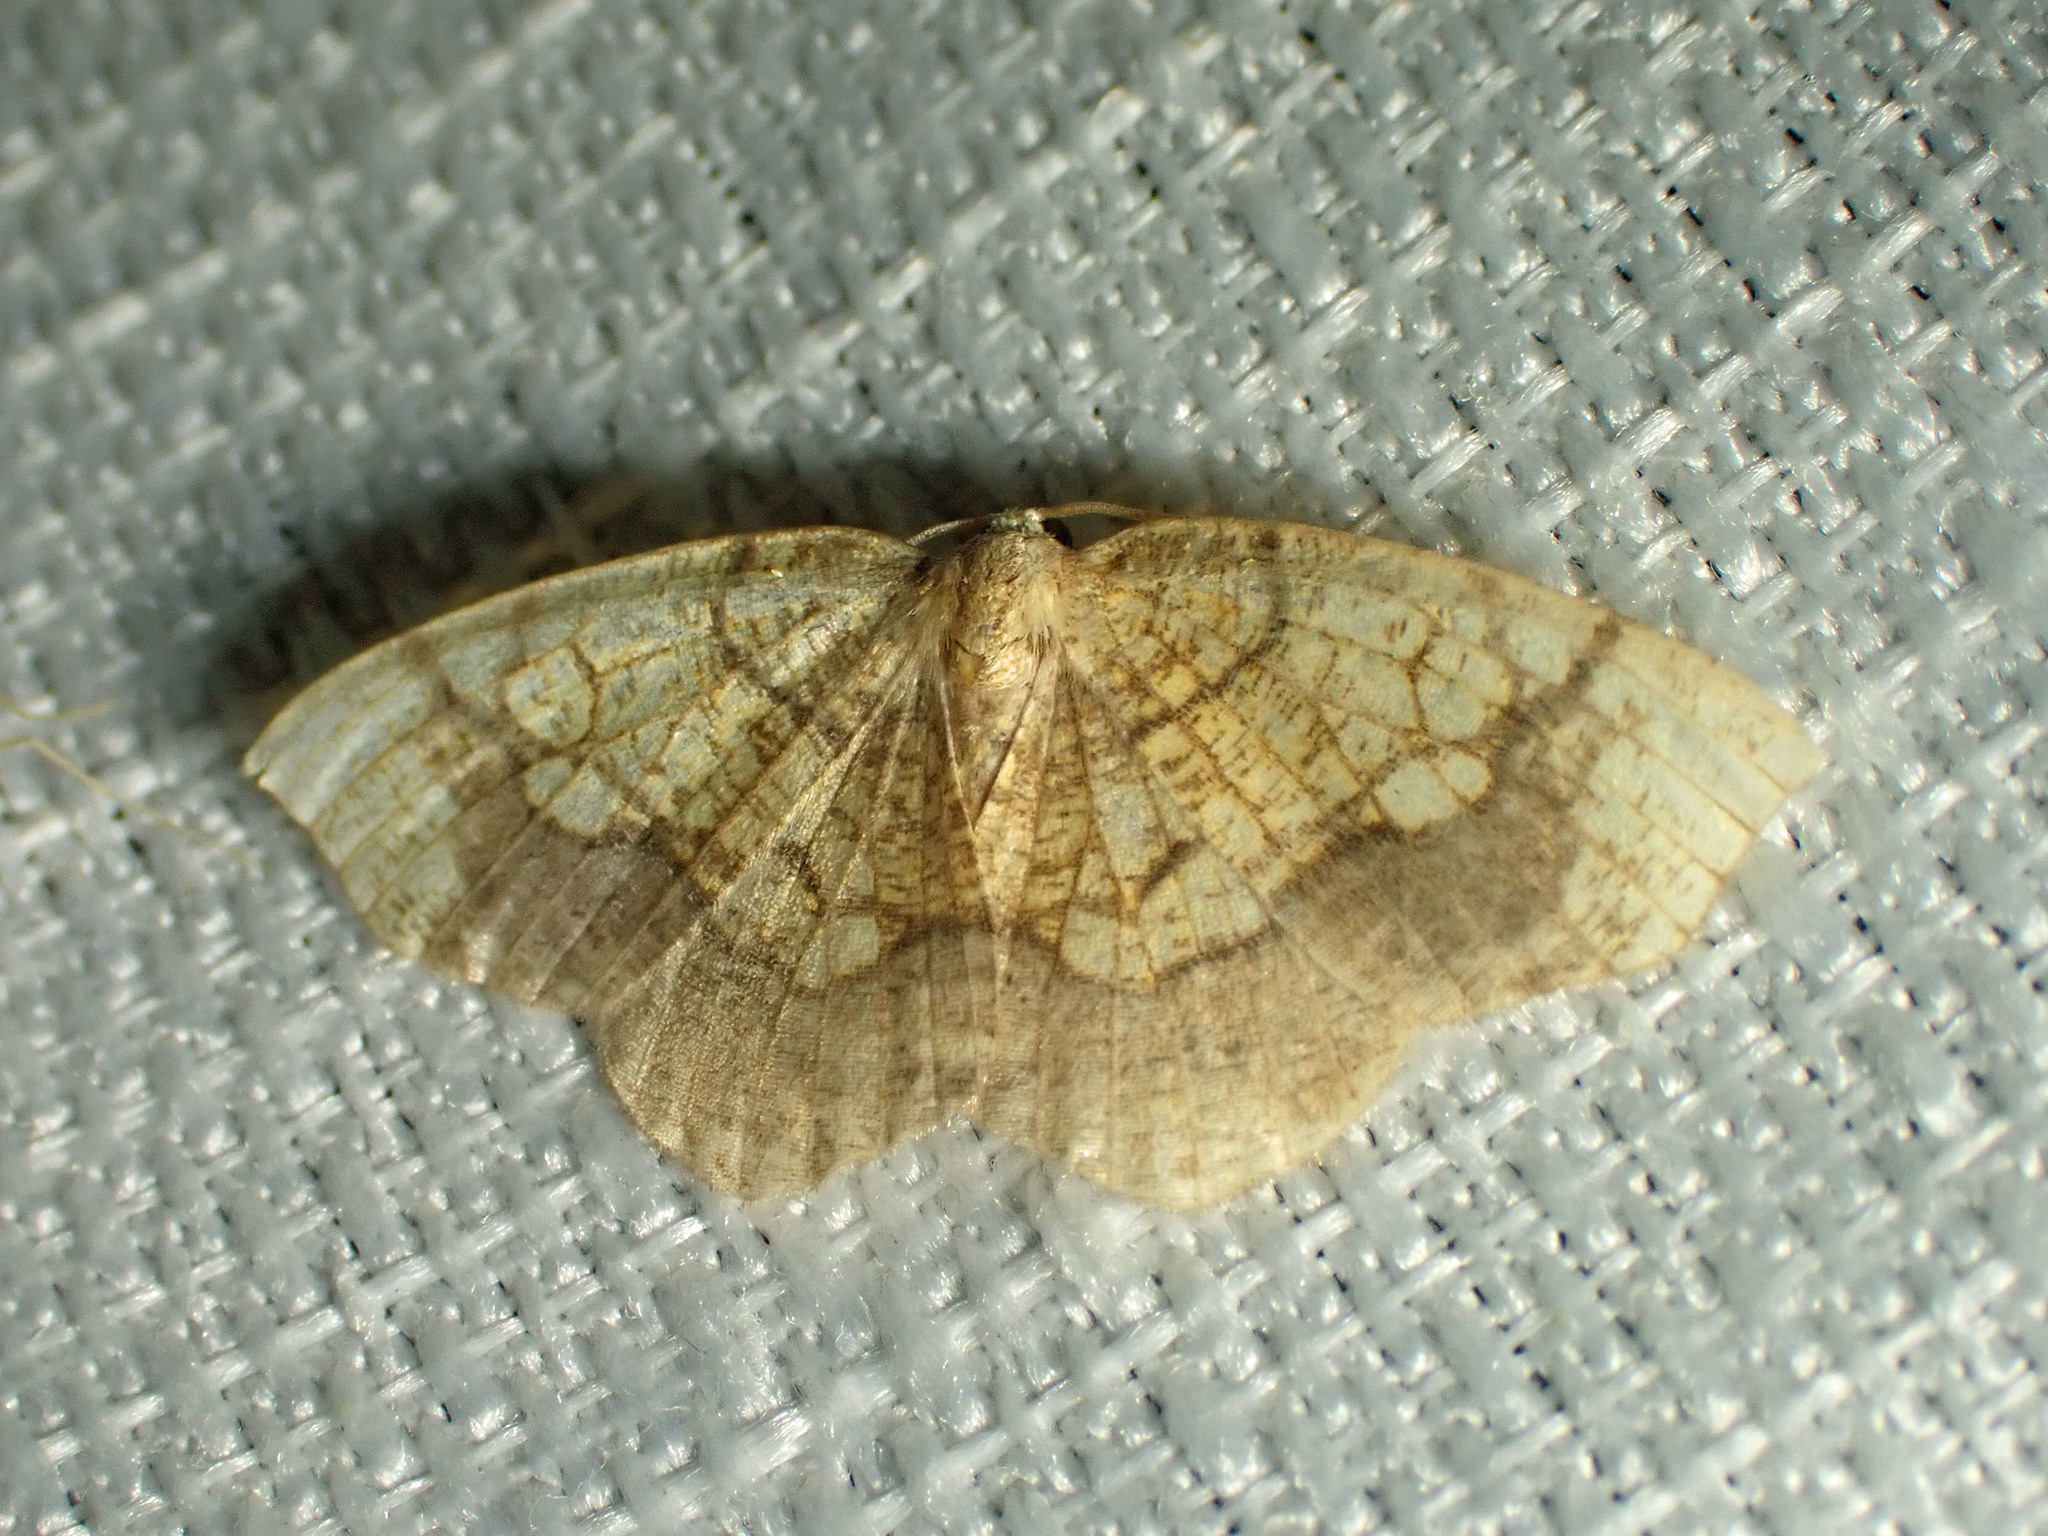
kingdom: Animalia
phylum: Arthropoda
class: Insecta
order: Lepidoptera
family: Geometridae
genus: Nematocampa
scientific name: Nematocampa resistaria
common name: Horned spanworm moth
